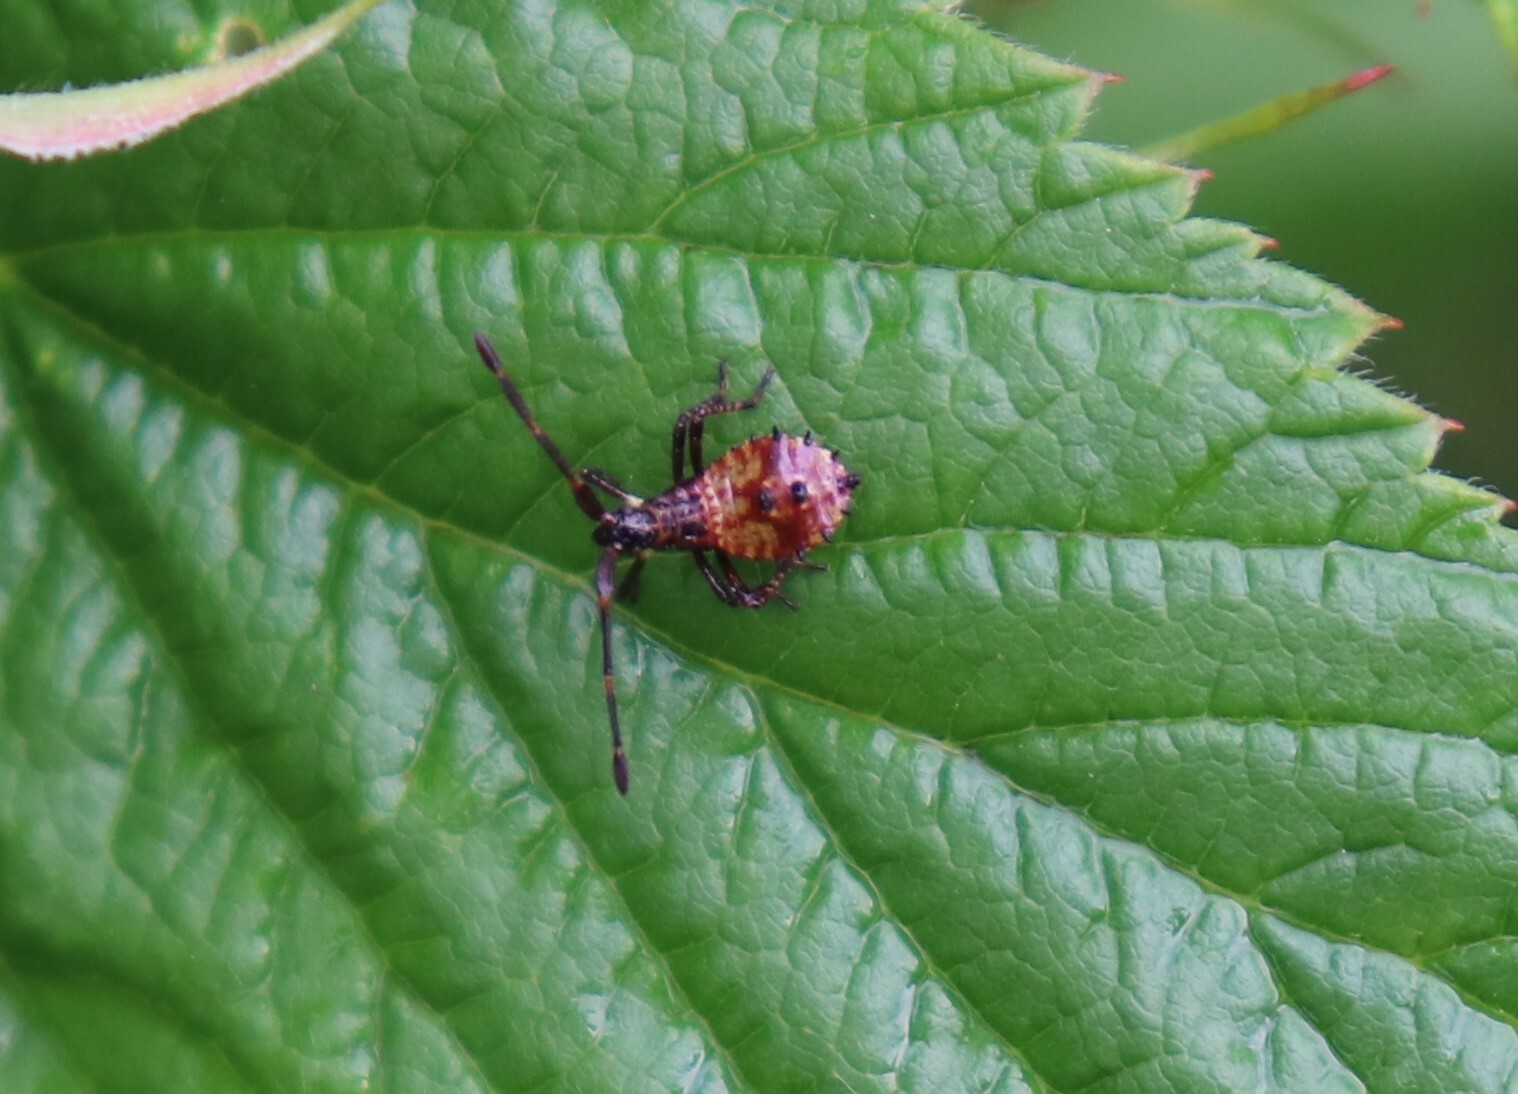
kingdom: Animalia
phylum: Arthropoda
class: Insecta
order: Hemiptera
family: Coreidae
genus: Coreus
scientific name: Coreus marginatus
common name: Dock bug
